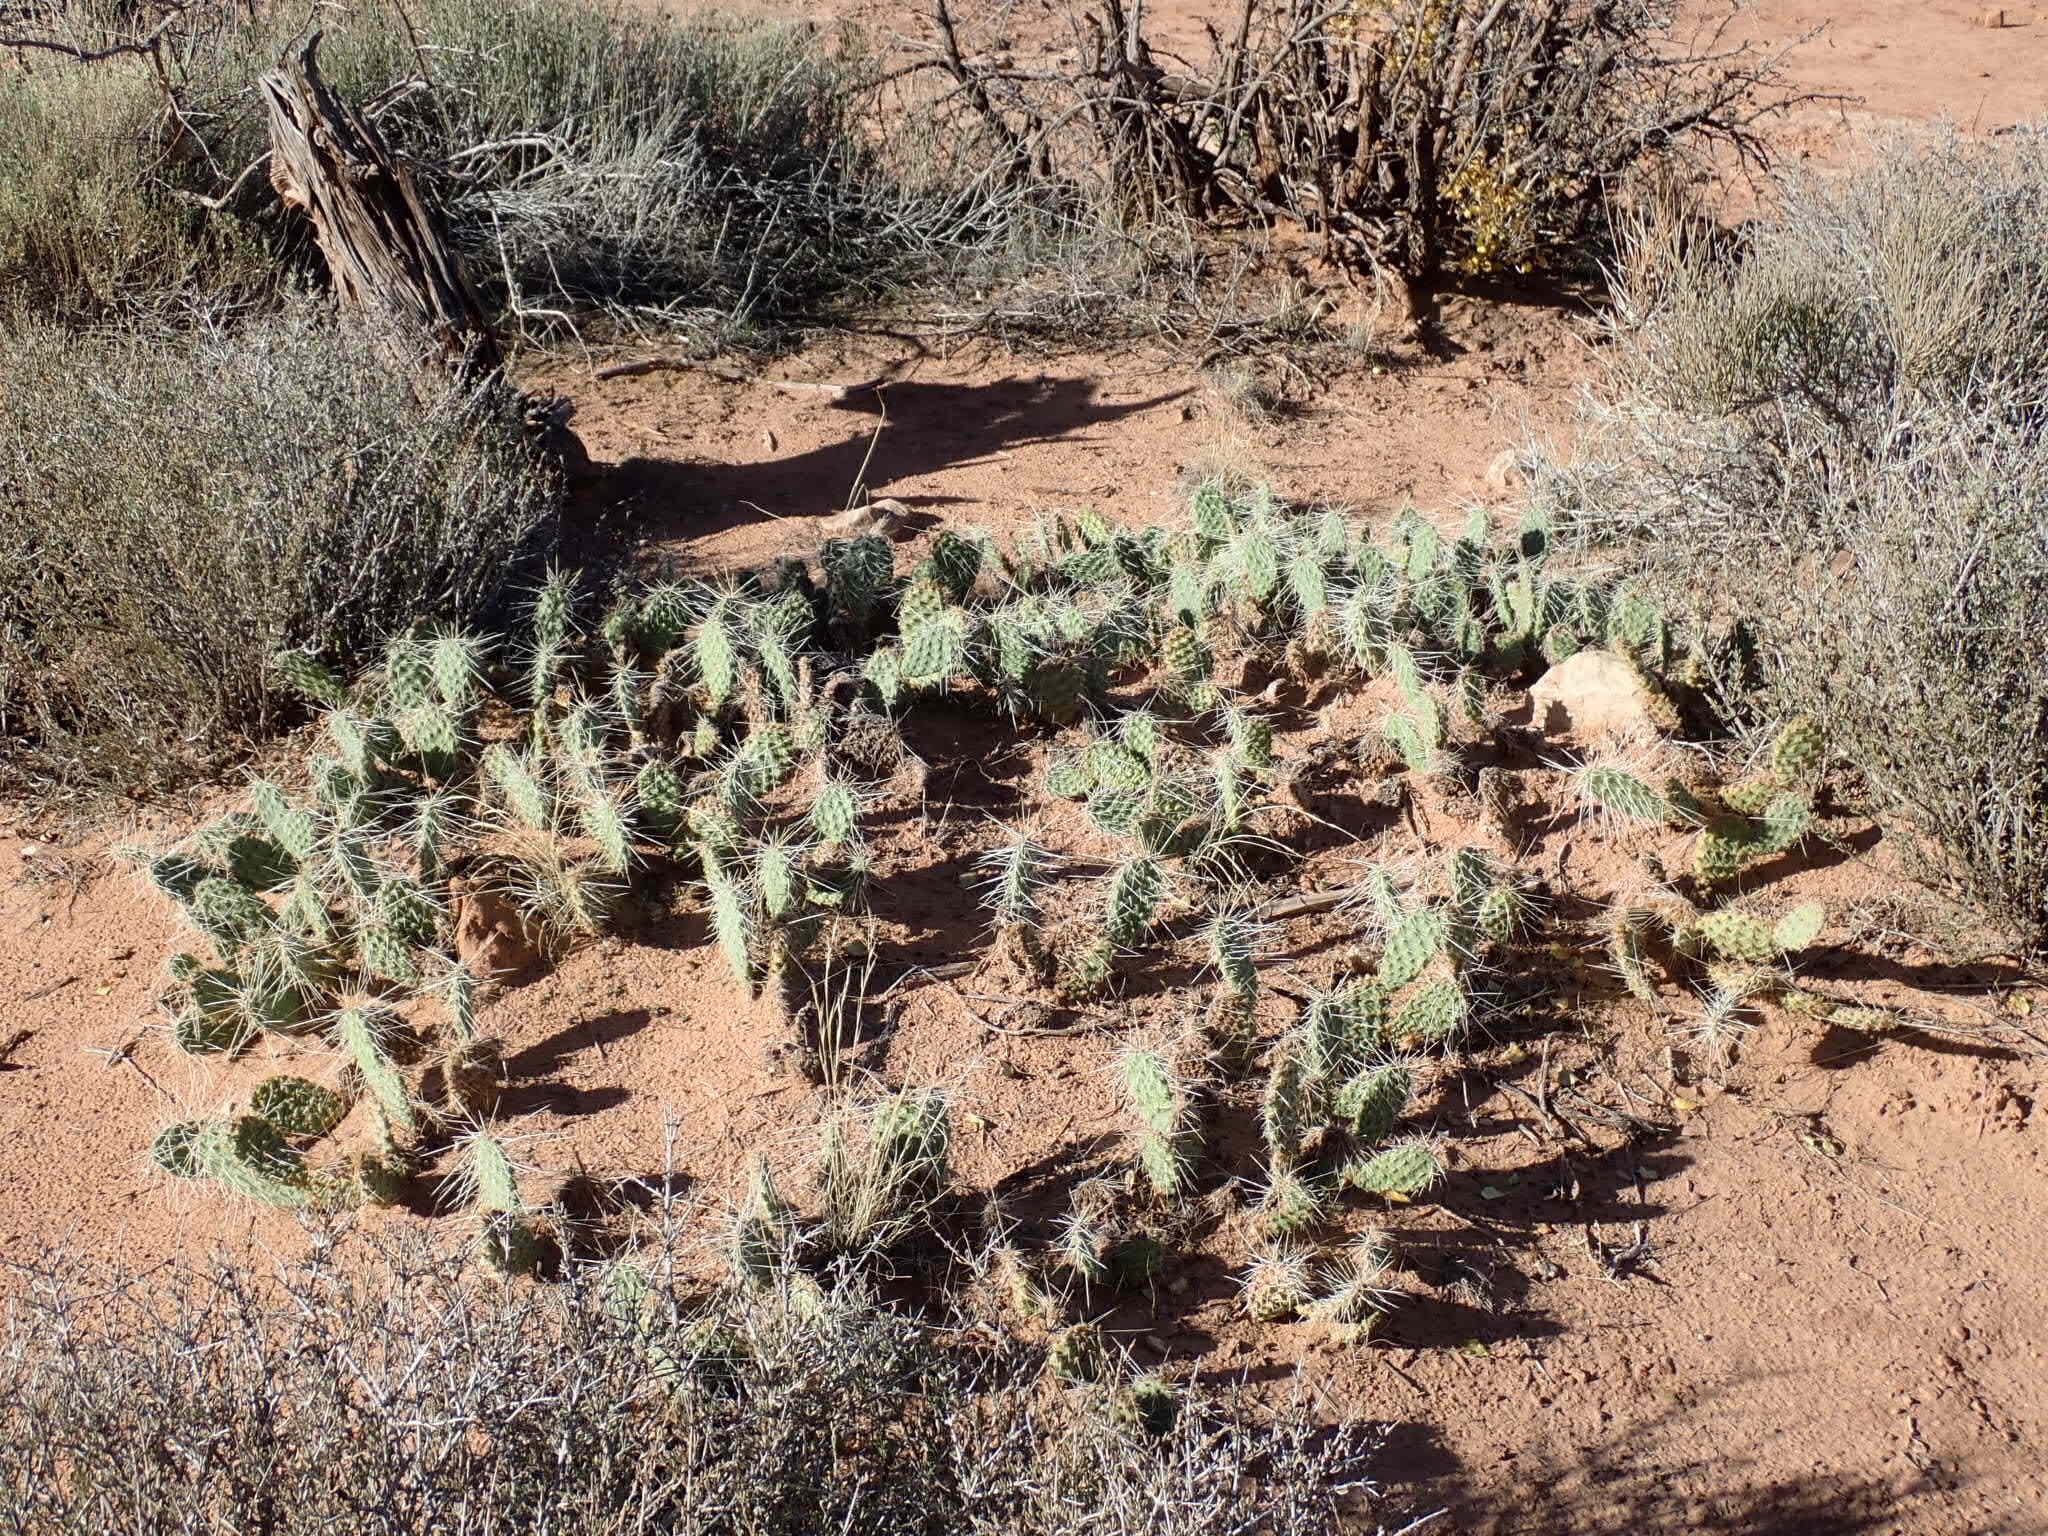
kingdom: Plantae
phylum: Tracheophyta
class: Magnoliopsida
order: Caryophyllales
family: Cactaceae
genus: Opuntia
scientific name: Opuntia polyacantha
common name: Plains prickly-pear
